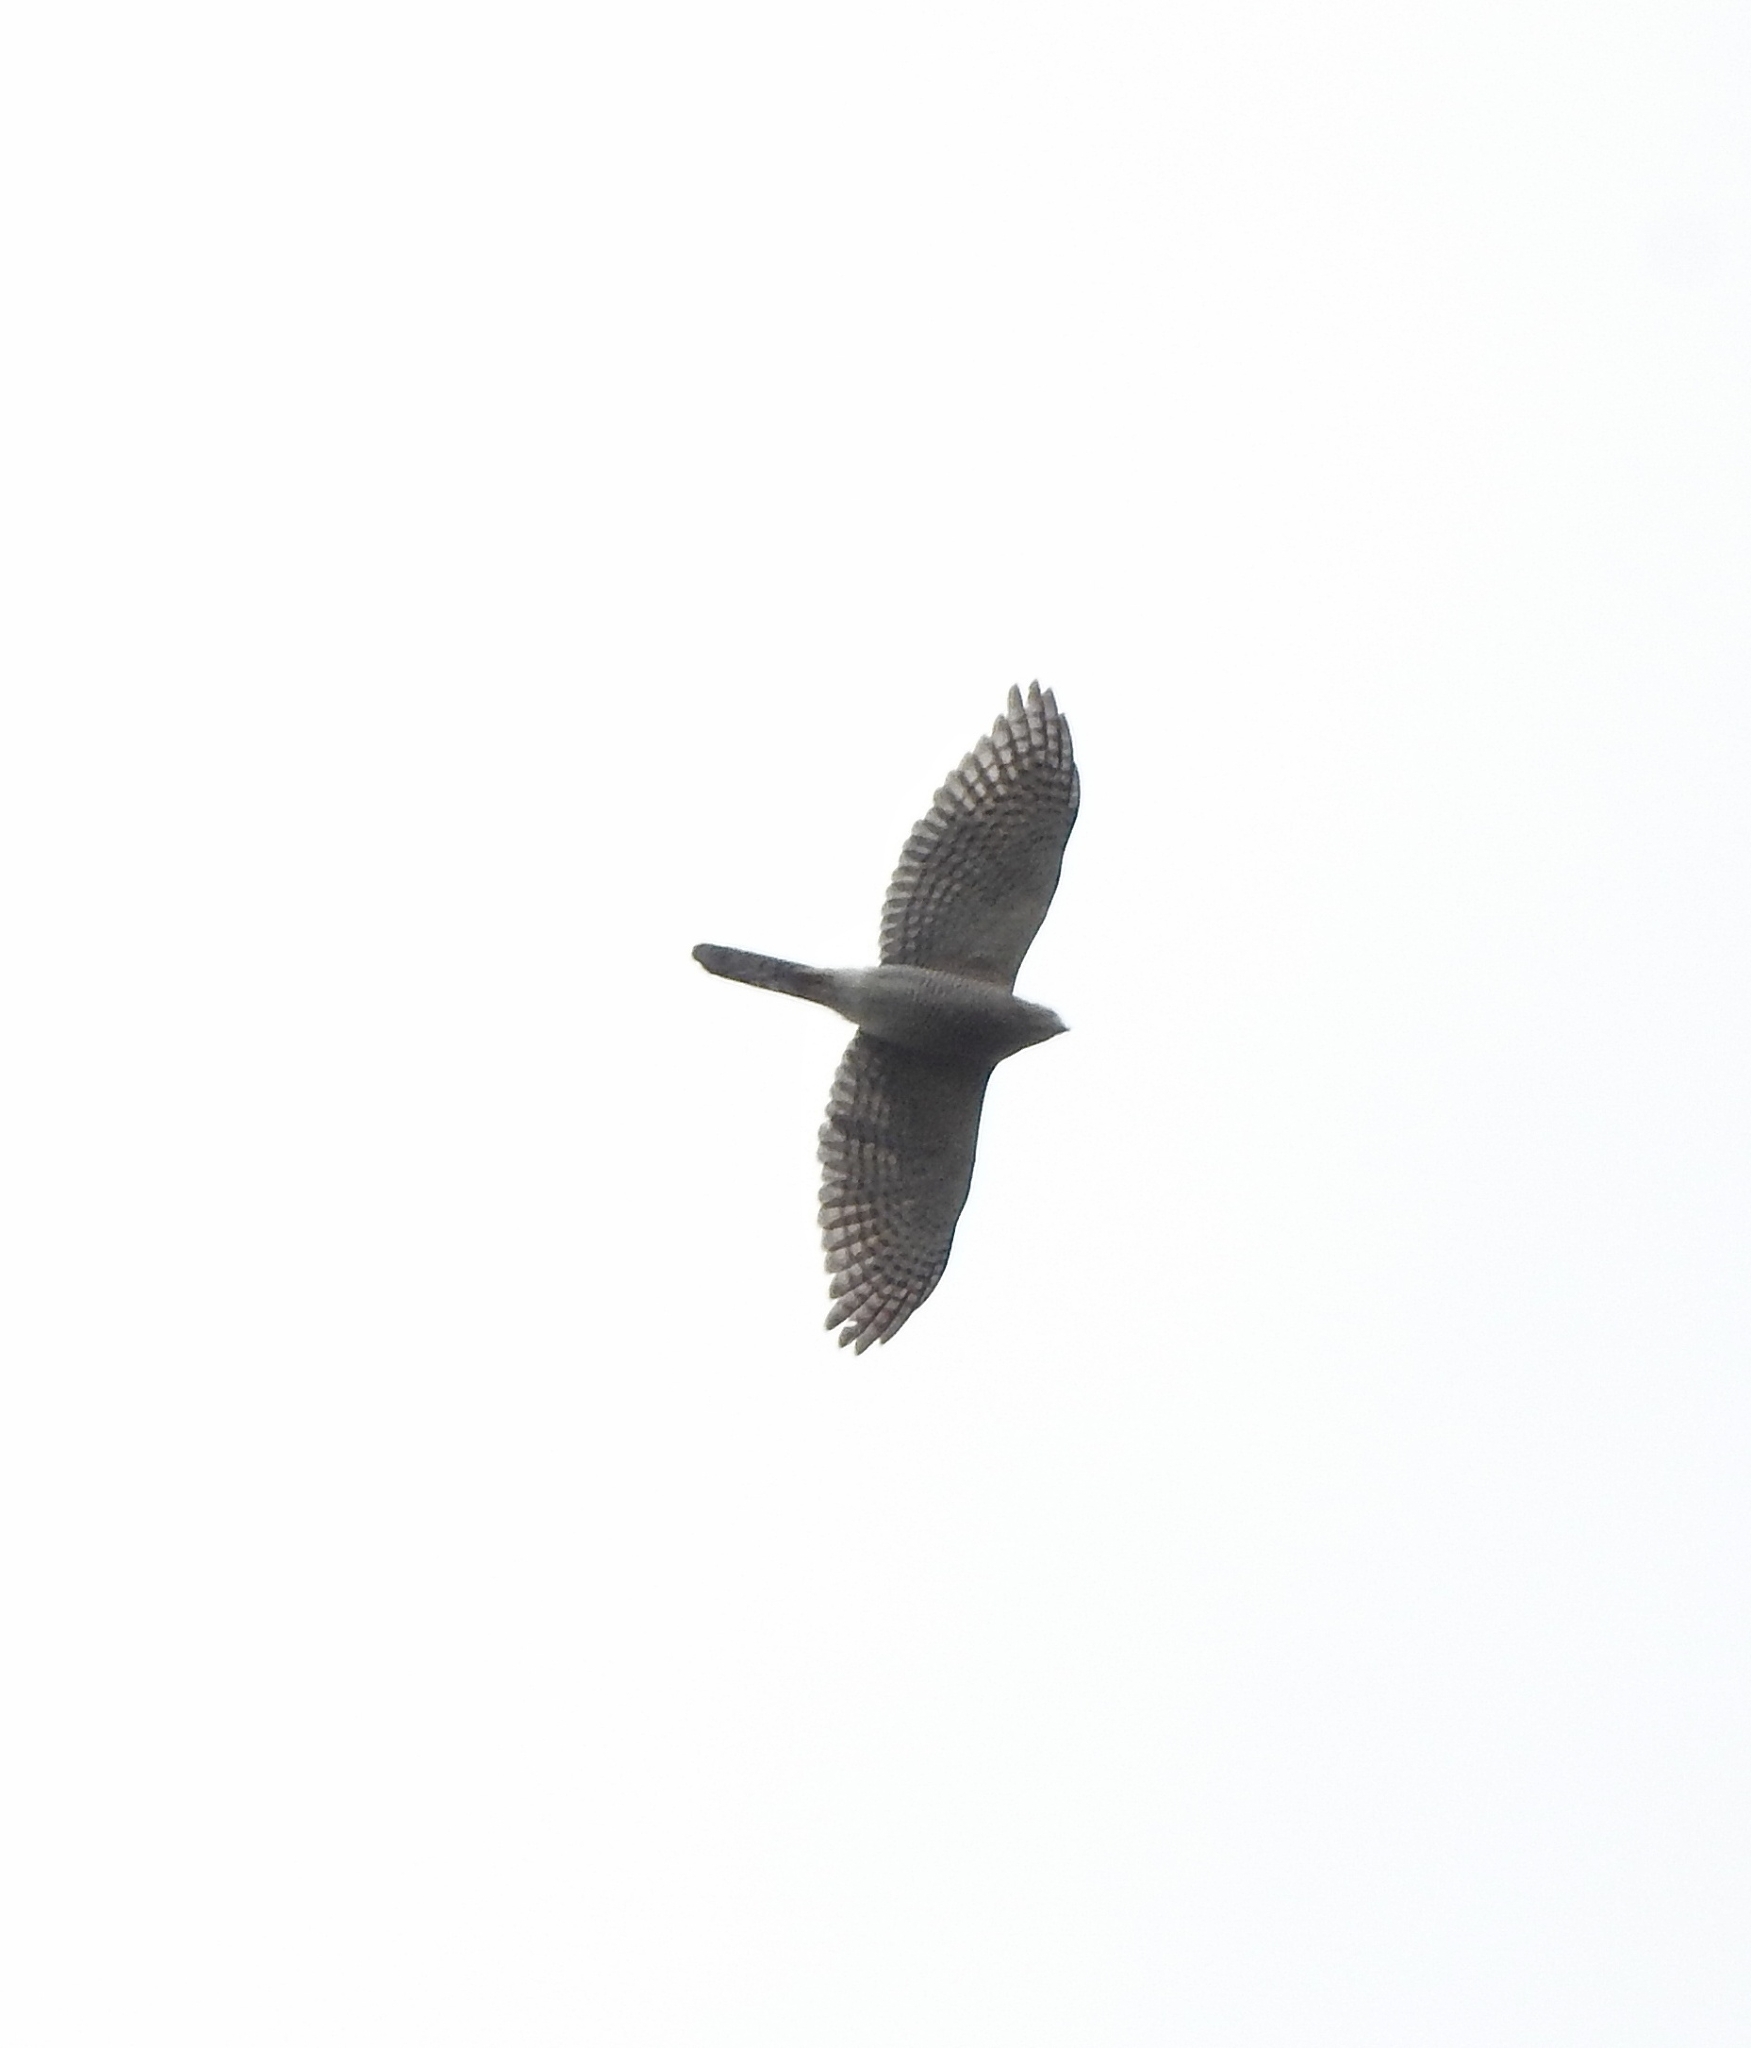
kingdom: Animalia
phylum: Chordata
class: Aves
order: Accipitriformes
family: Accipitridae
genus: Accipiter
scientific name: Accipiter badius
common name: Shikra
